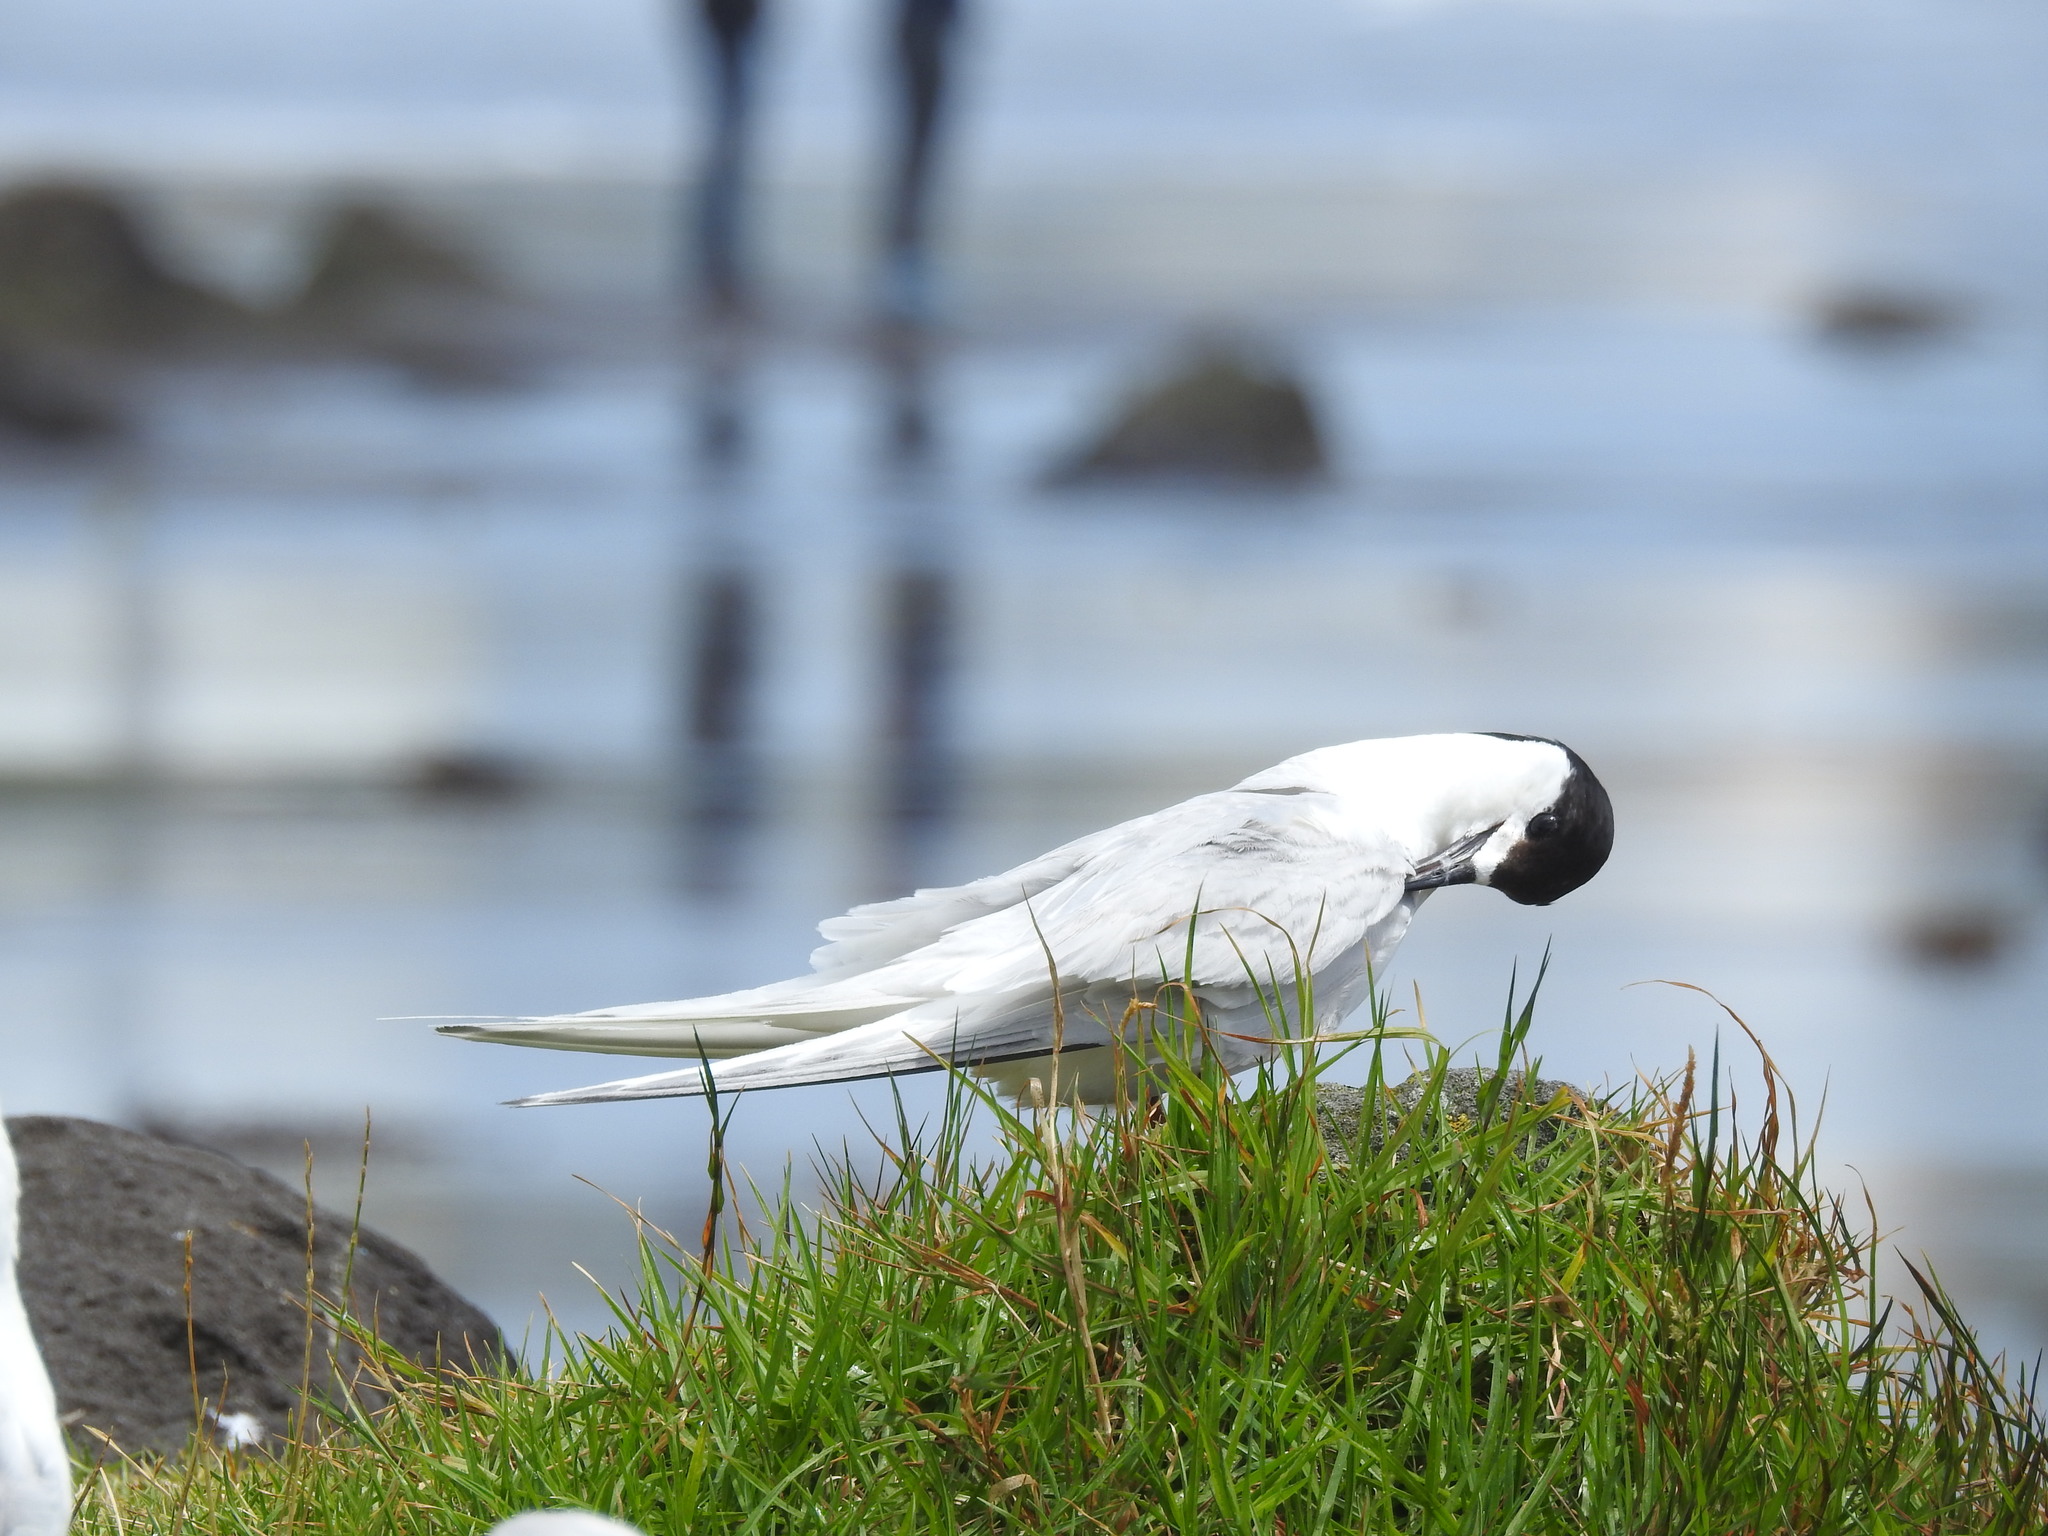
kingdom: Animalia
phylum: Chordata
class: Aves
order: Charadriiformes
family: Laridae
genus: Sterna
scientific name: Sterna striata
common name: White-fronted tern
